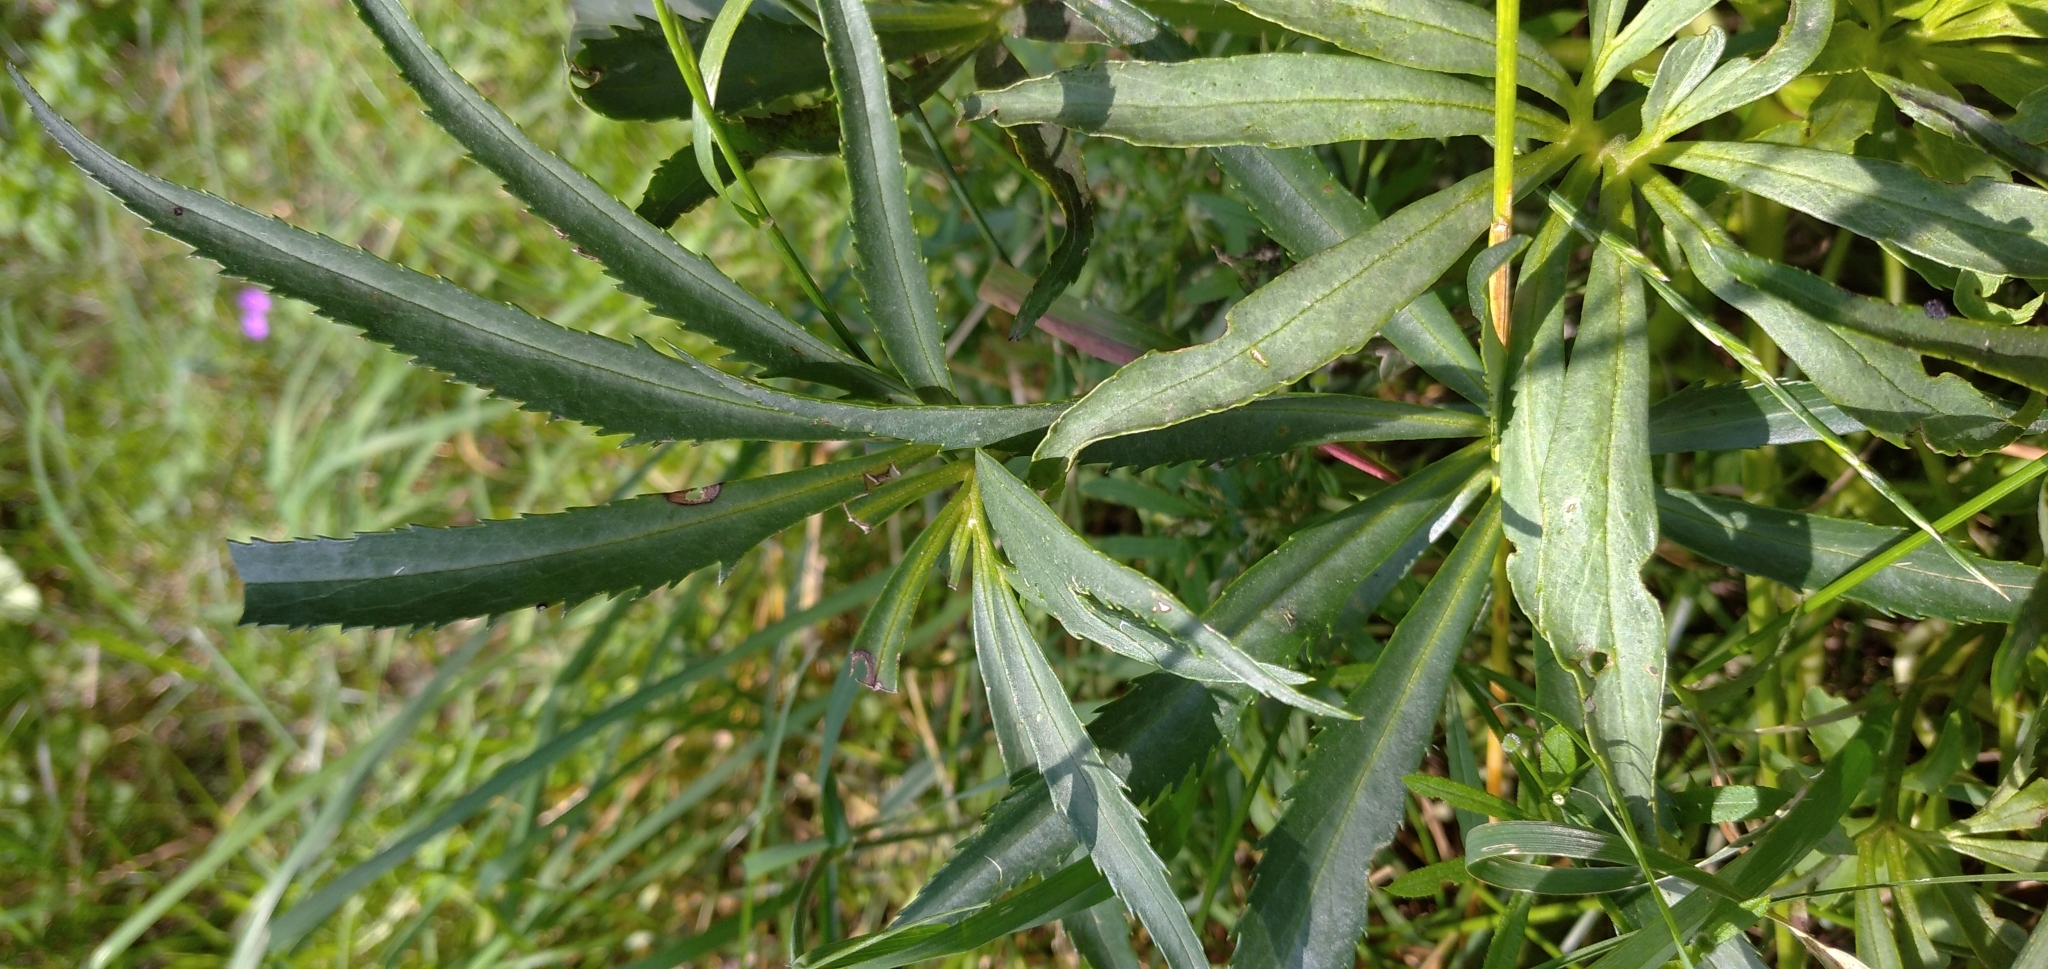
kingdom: Plantae
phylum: Tracheophyta
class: Magnoliopsida
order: Ranunculales
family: Ranunculaceae
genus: Helleborus
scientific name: Helleborus foetidus
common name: Stinking hellebore
